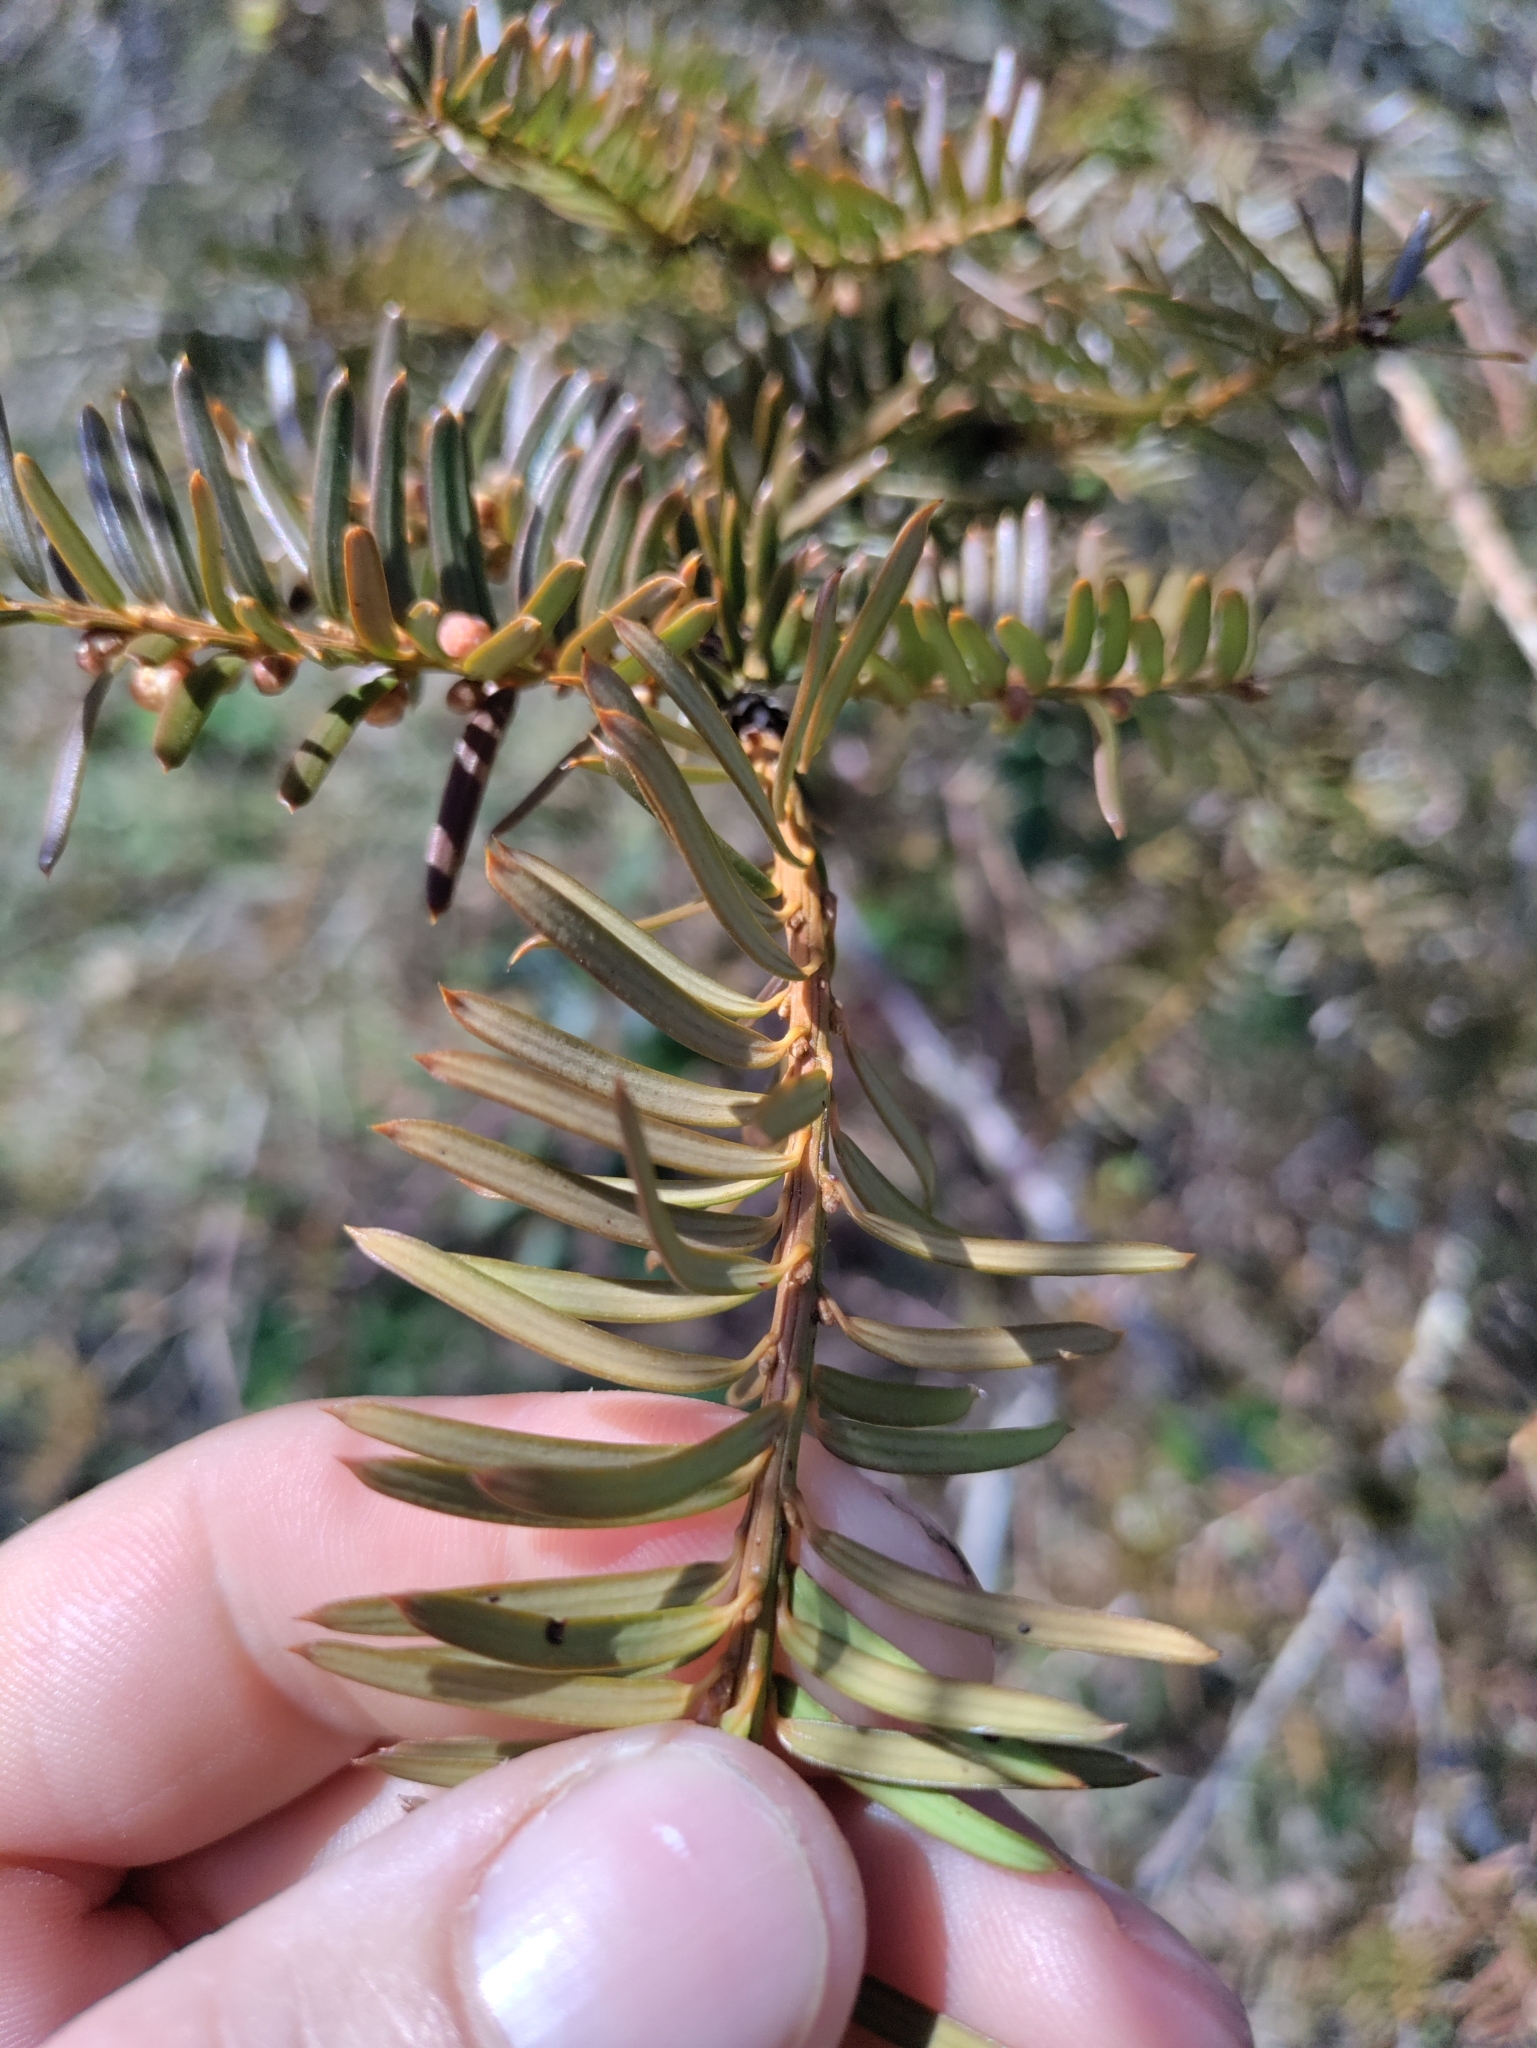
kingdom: Plantae
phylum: Tracheophyta
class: Pinopsida
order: Pinales
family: Taxaceae
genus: Taxus
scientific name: Taxus brevifolia
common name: Pacific yew
